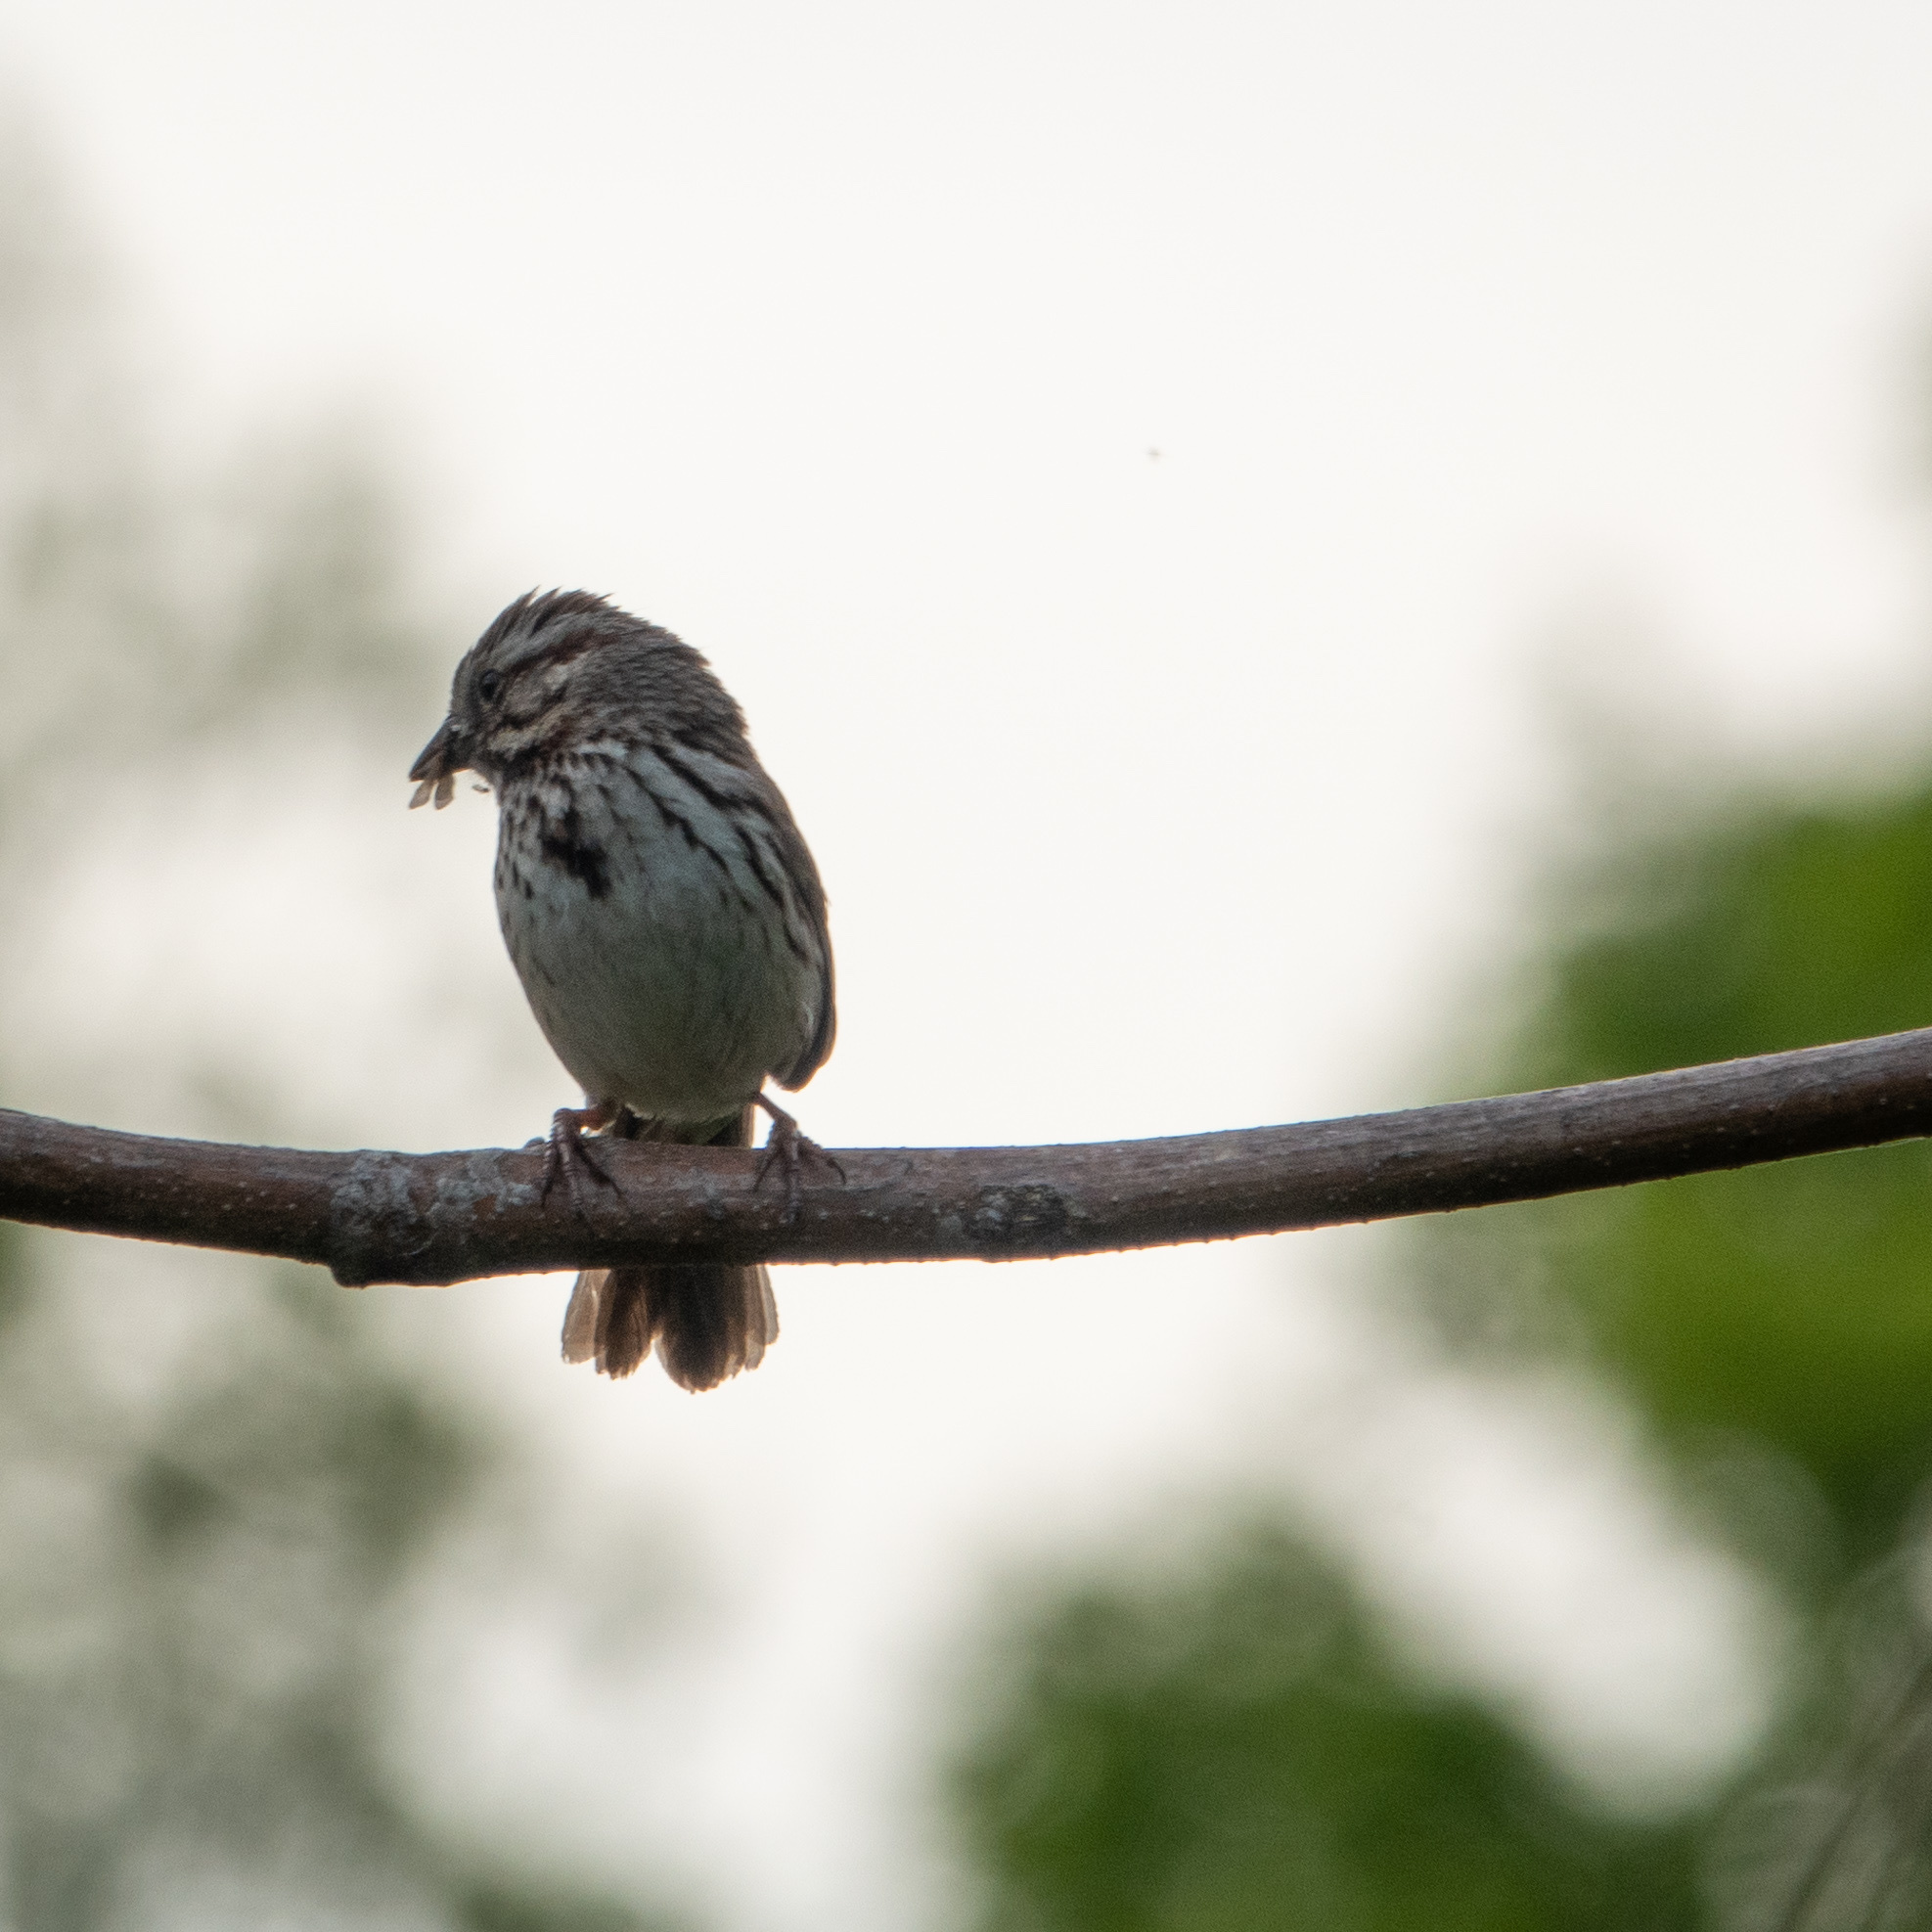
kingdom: Animalia
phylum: Chordata
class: Aves
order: Passeriformes
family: Passerellidae
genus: Melospiza
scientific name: Melospiza melodia
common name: Song sparrow
